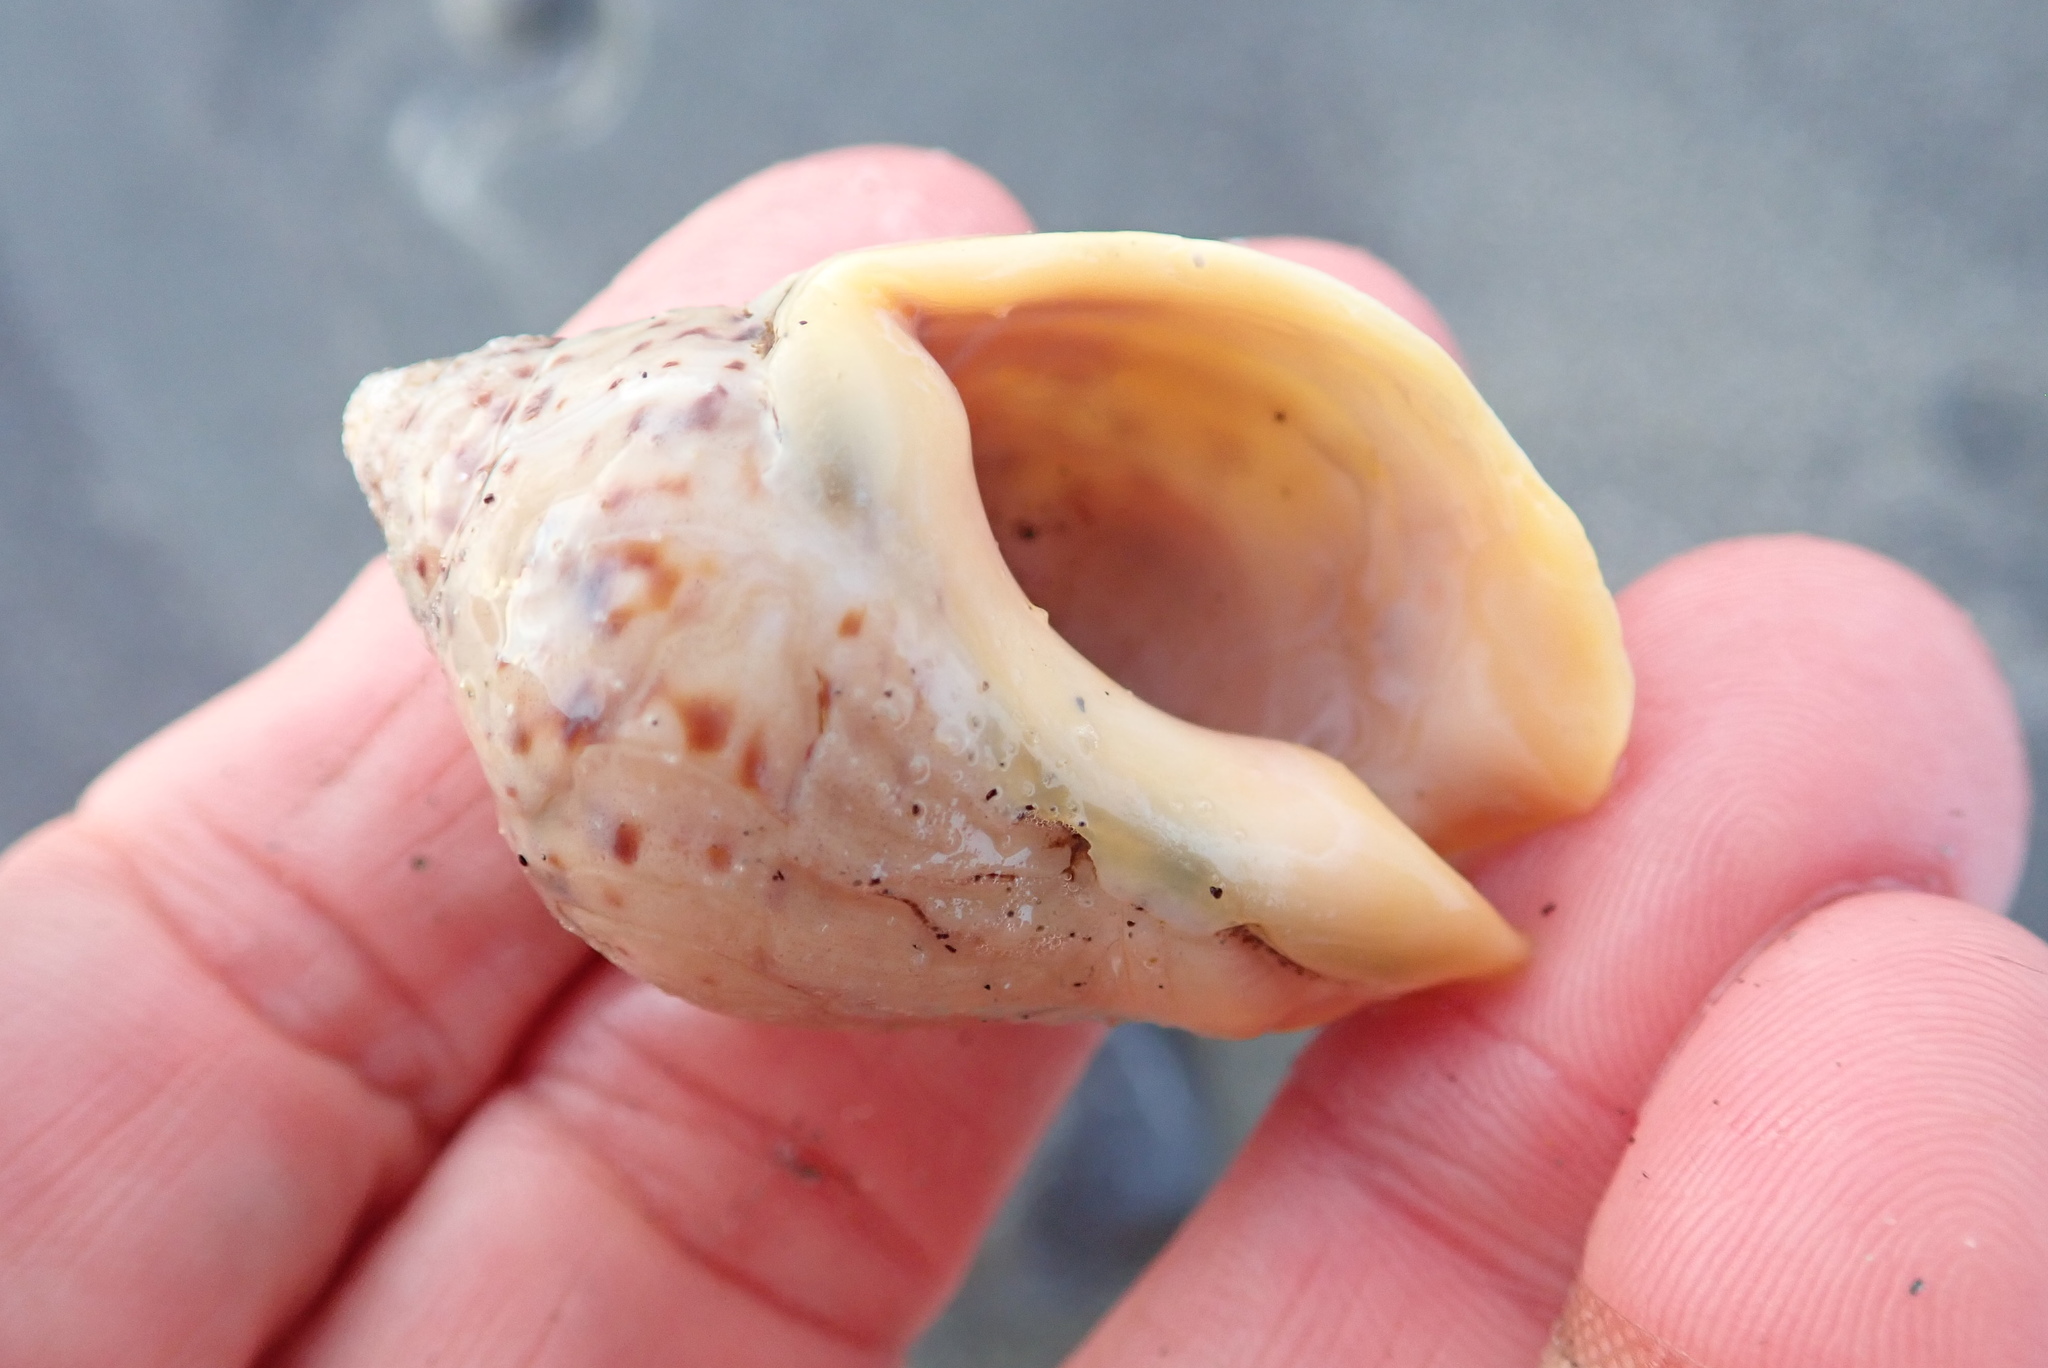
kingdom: Animalia
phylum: Mollusca
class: Gastropoda
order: Neogastropoda
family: Cominellidae
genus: Cominella
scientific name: Cominella adspersa
